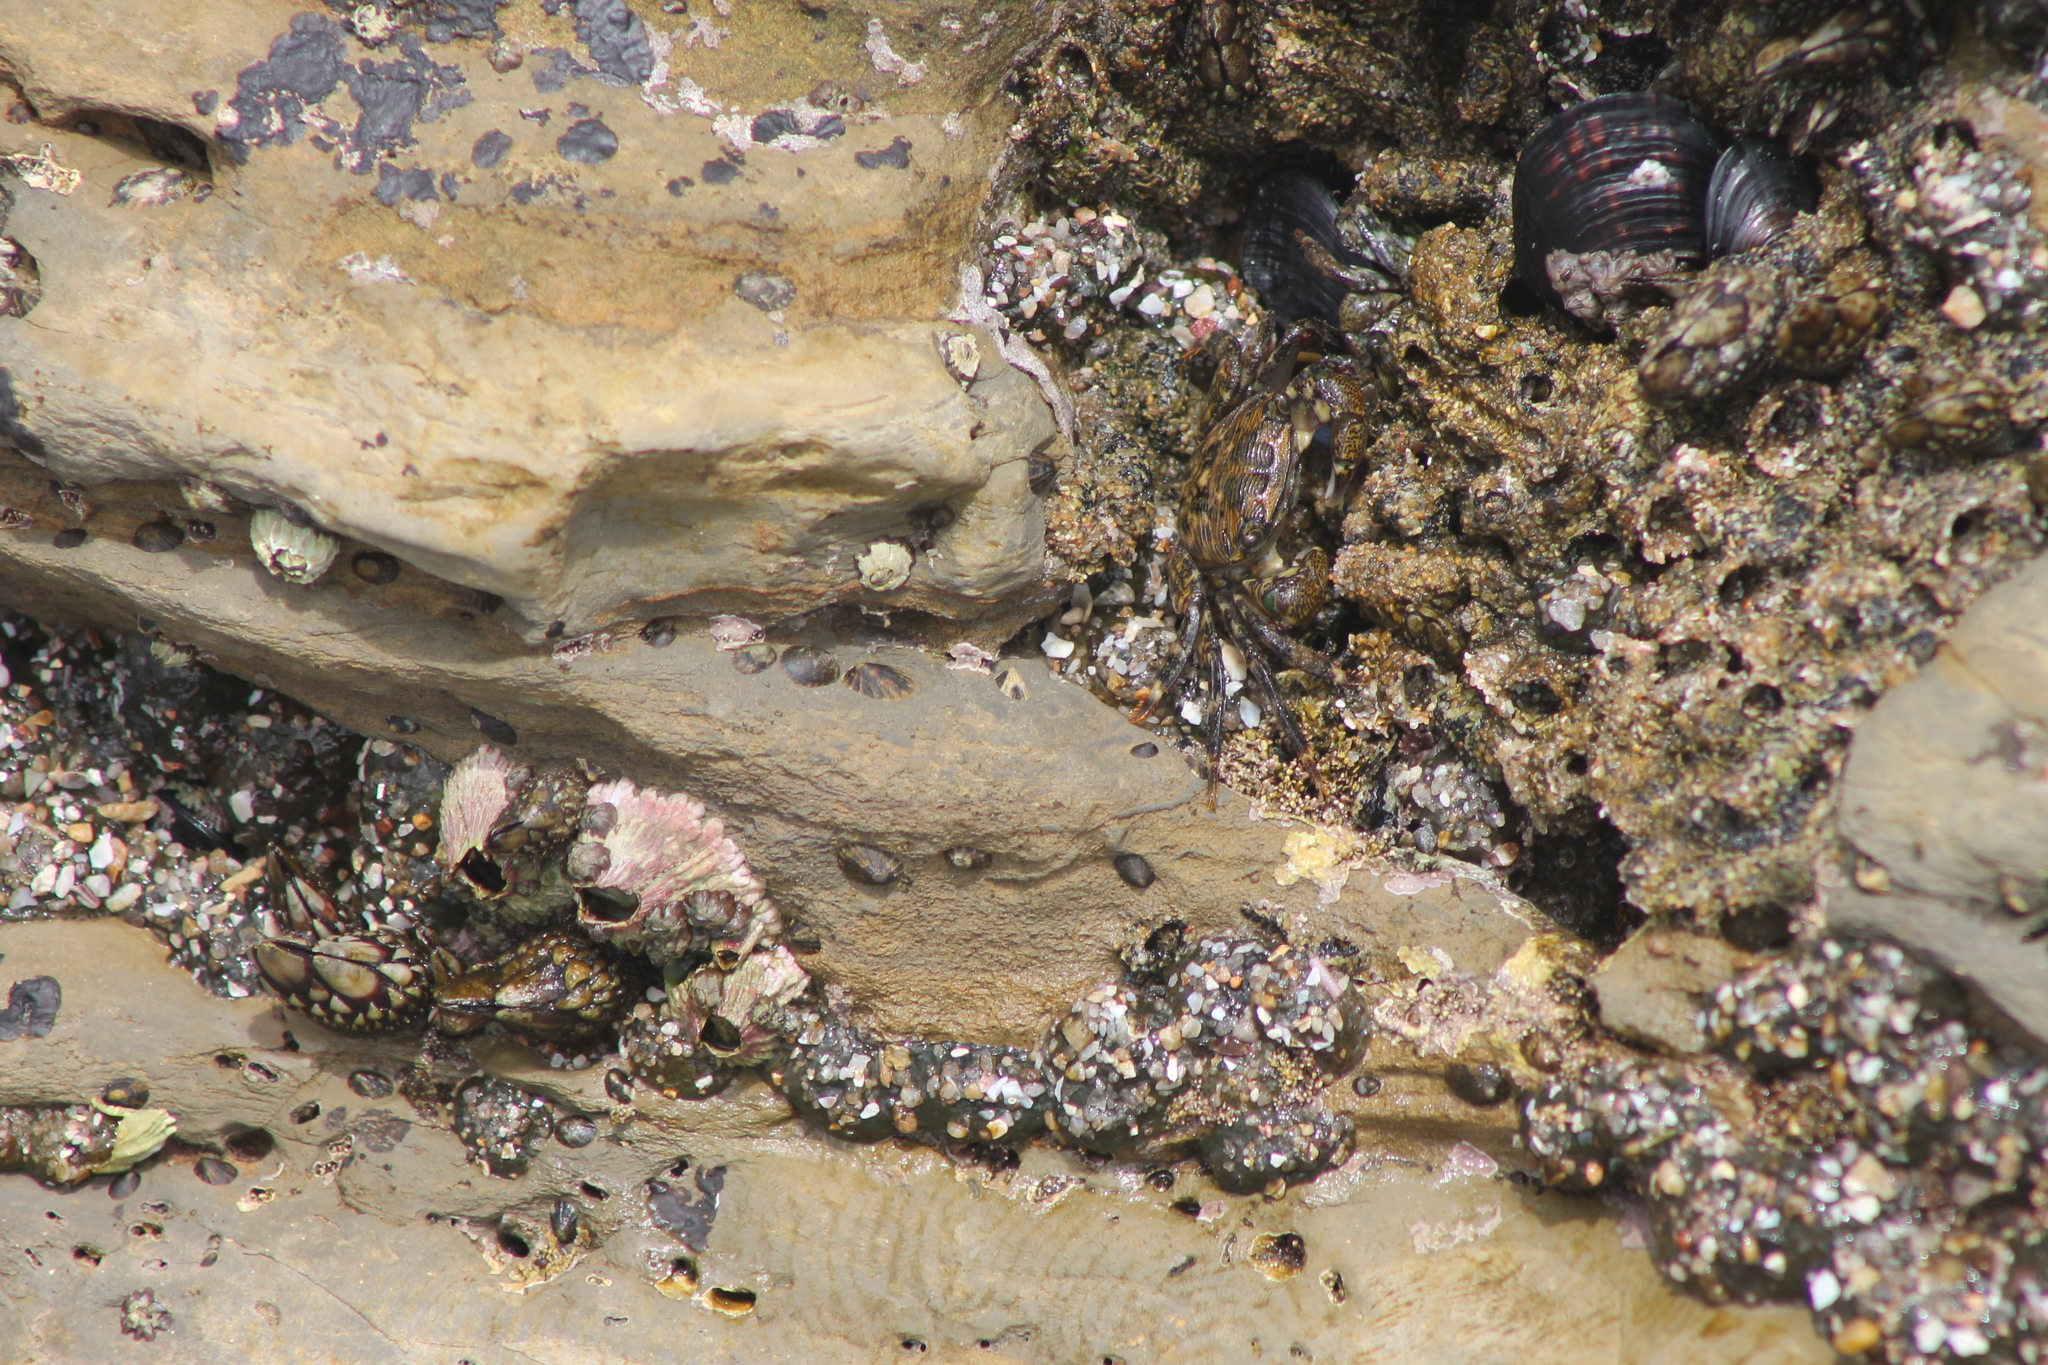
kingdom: Animalia
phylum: Arthropoda
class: Malacostraca
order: Decapoda
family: Grapsidae
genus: Pachygrapsus
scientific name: Pachygrapsus crassipes
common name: Striped shore crab
